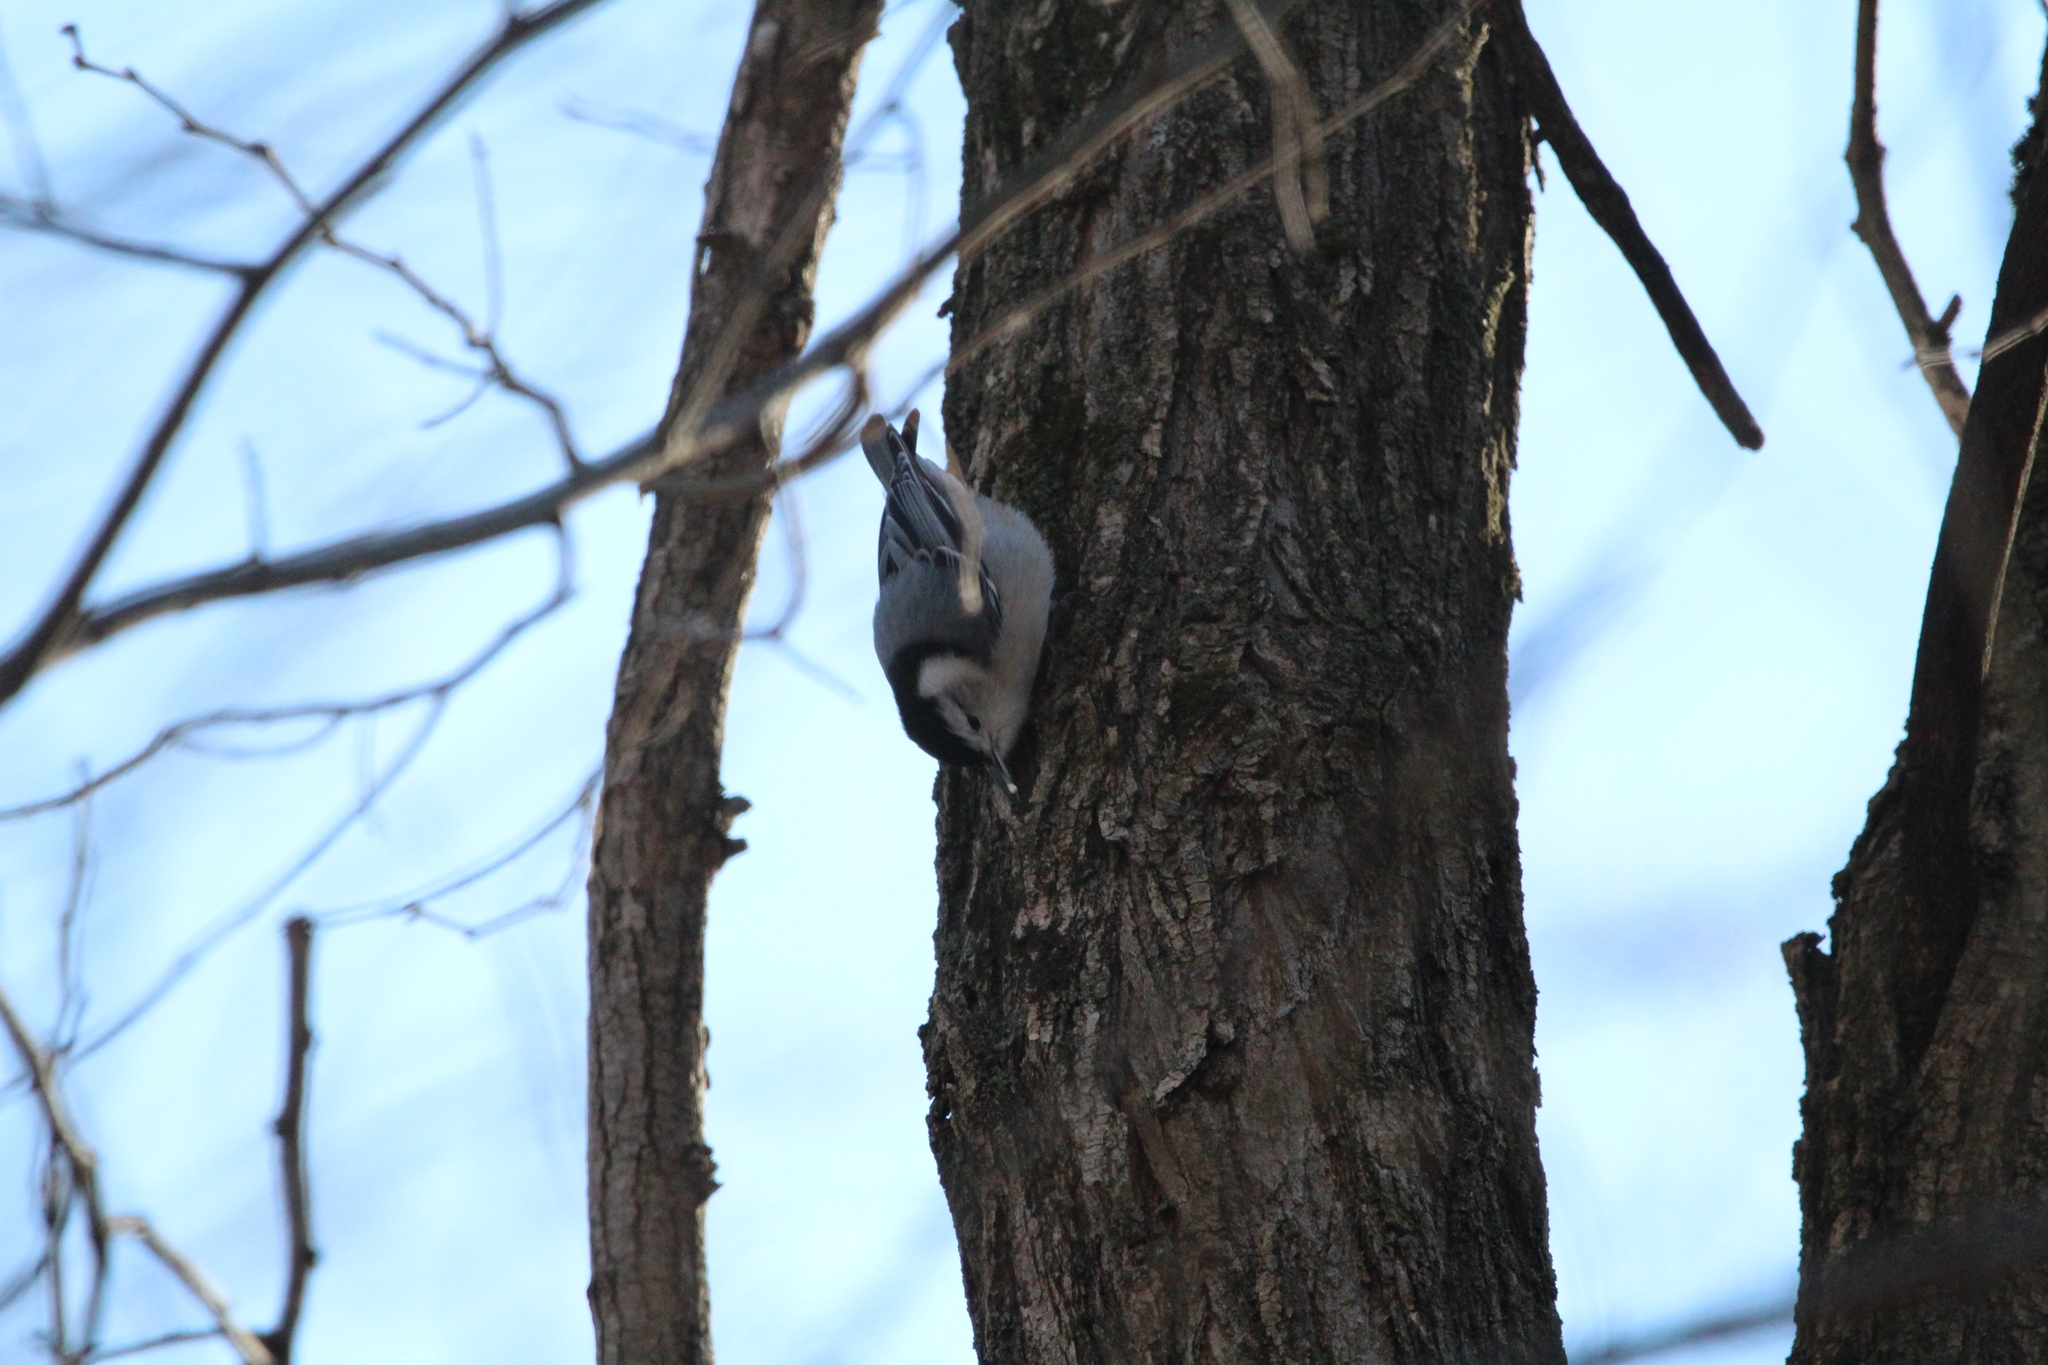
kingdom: Animalia
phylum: Chordata
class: Aves
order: Passeriformes
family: Sittidae
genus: Sitta
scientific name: Sitta carolinensis
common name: White-breasted nuthatch
